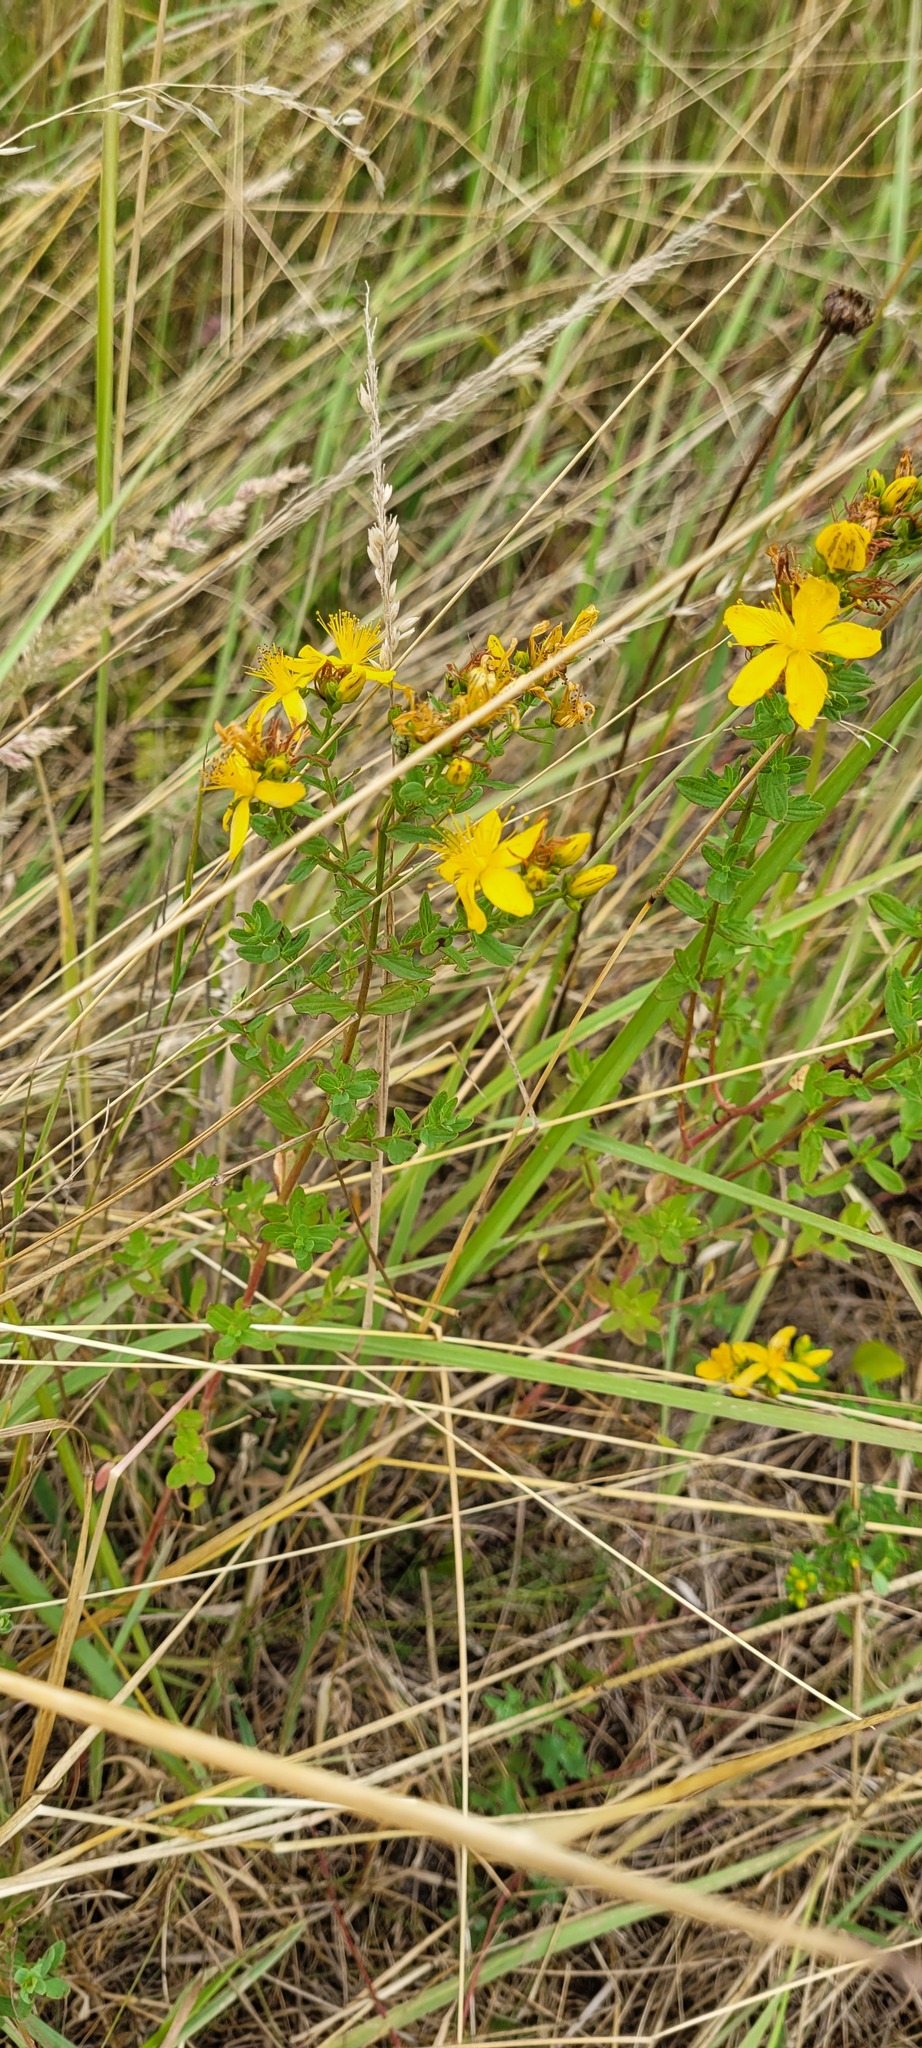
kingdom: Plantae
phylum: Tracheophyta
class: Magnoliopsida
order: Malpighiales
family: Hypericaceae
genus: Hypericum
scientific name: Hypericum perforatum
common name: Common st. johnswort
